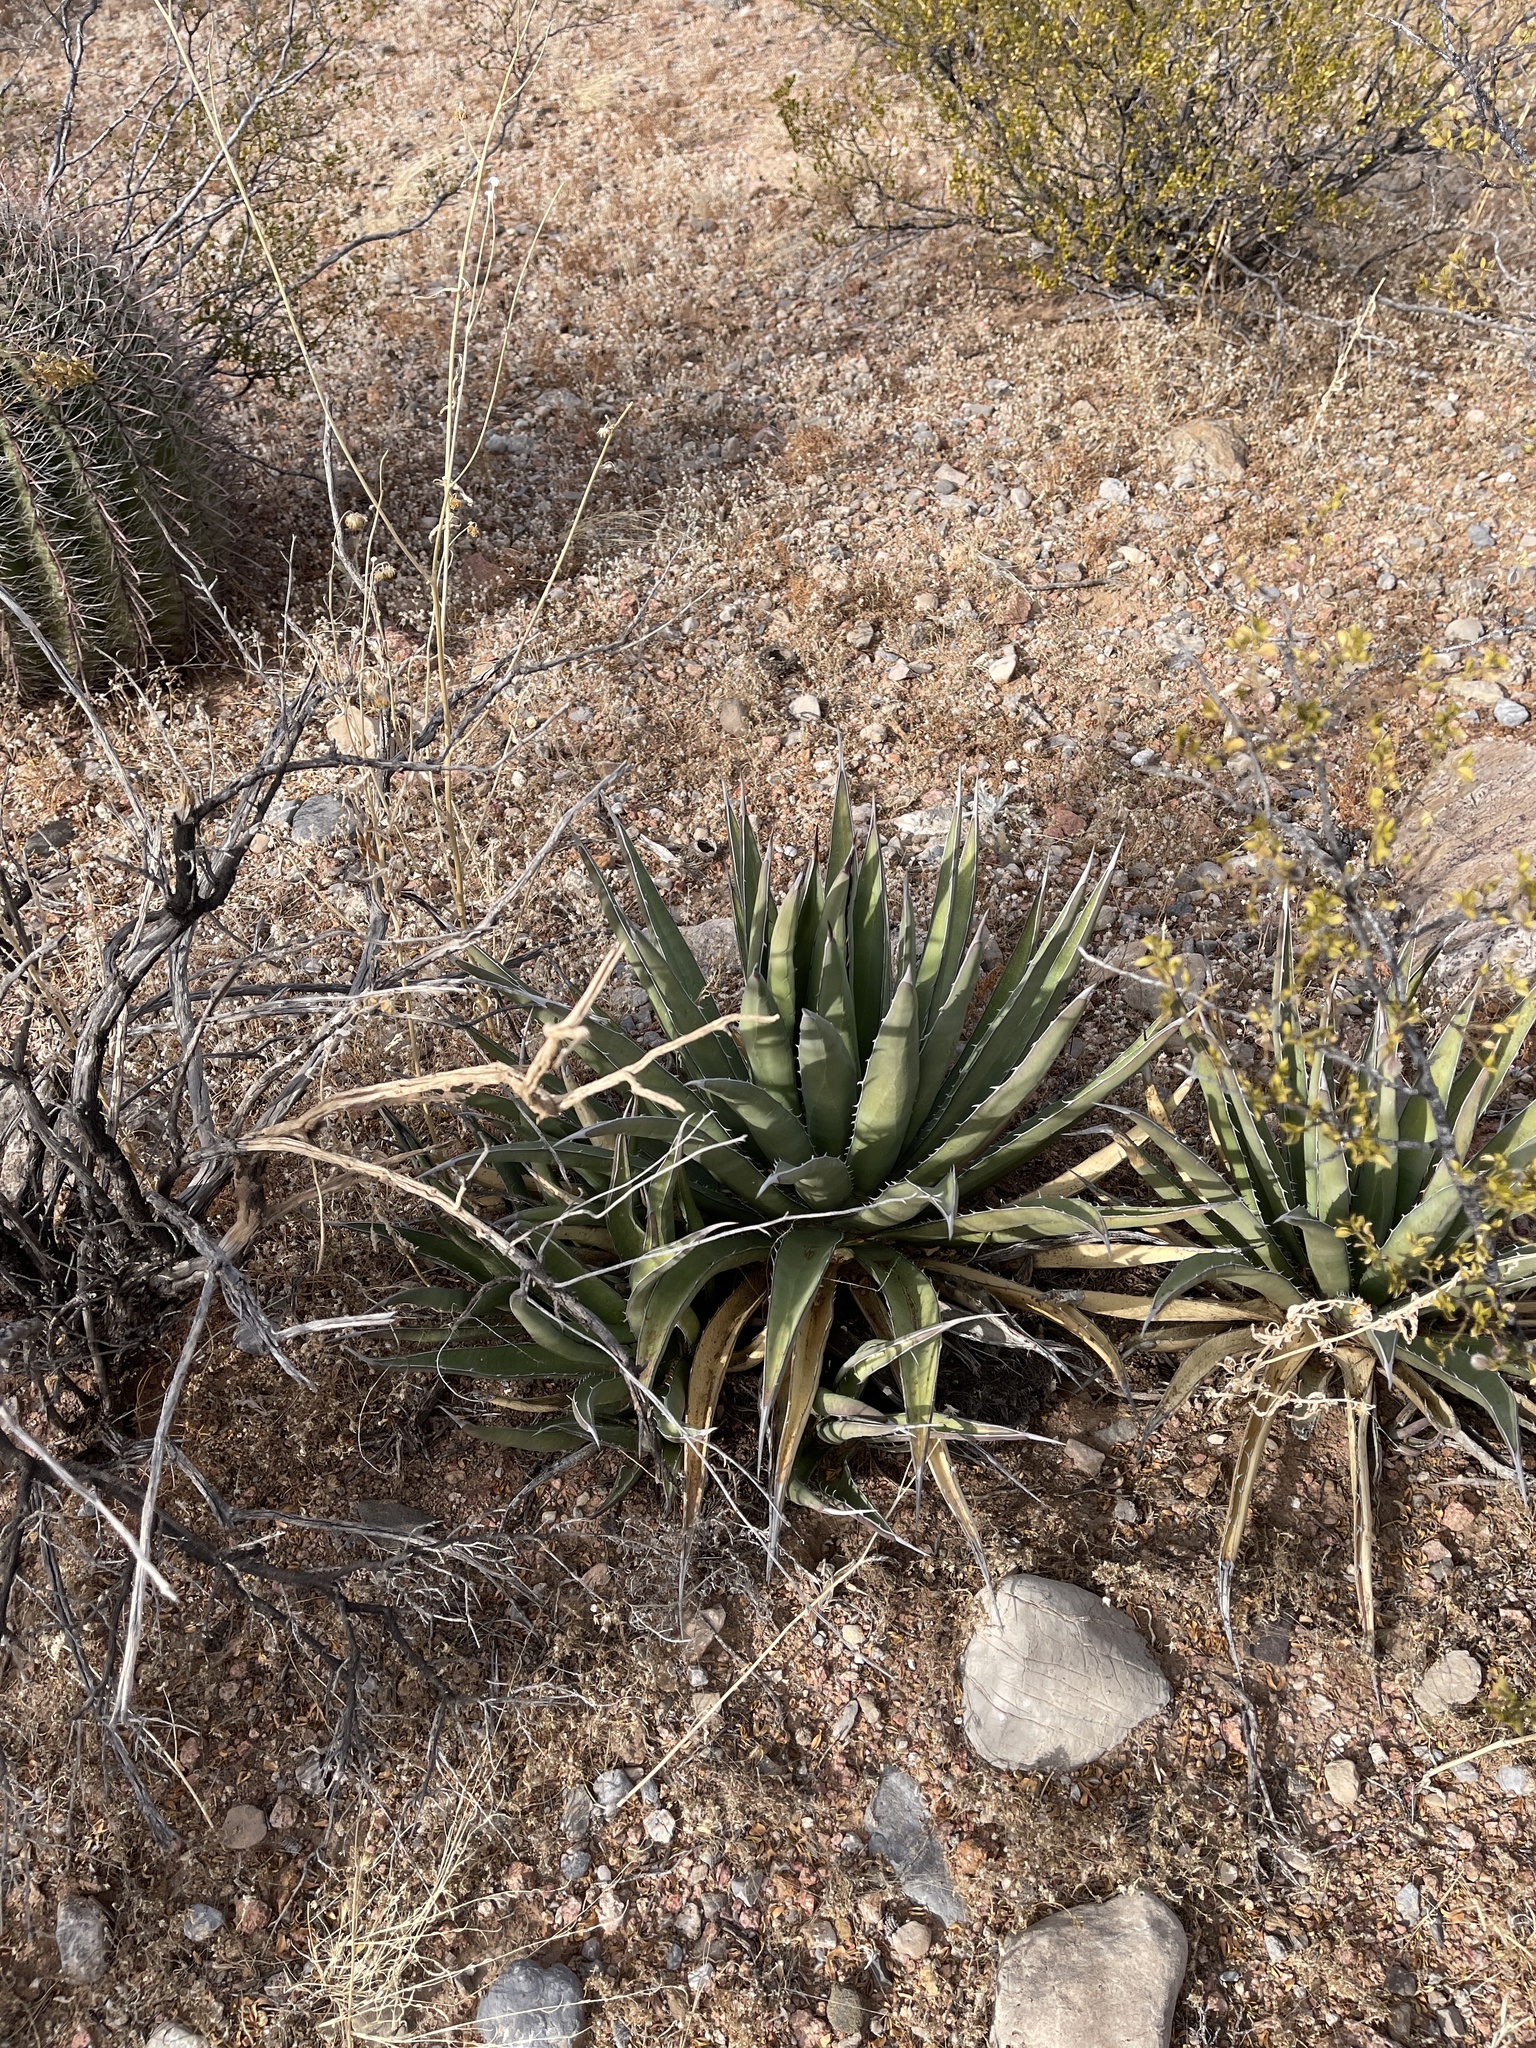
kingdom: Plantae
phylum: Tracheophyta
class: Liliopsida
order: Asparagales
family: Asparagaceae
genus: Agave
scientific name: Agave lechuguilla
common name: Lecheguilla agave
